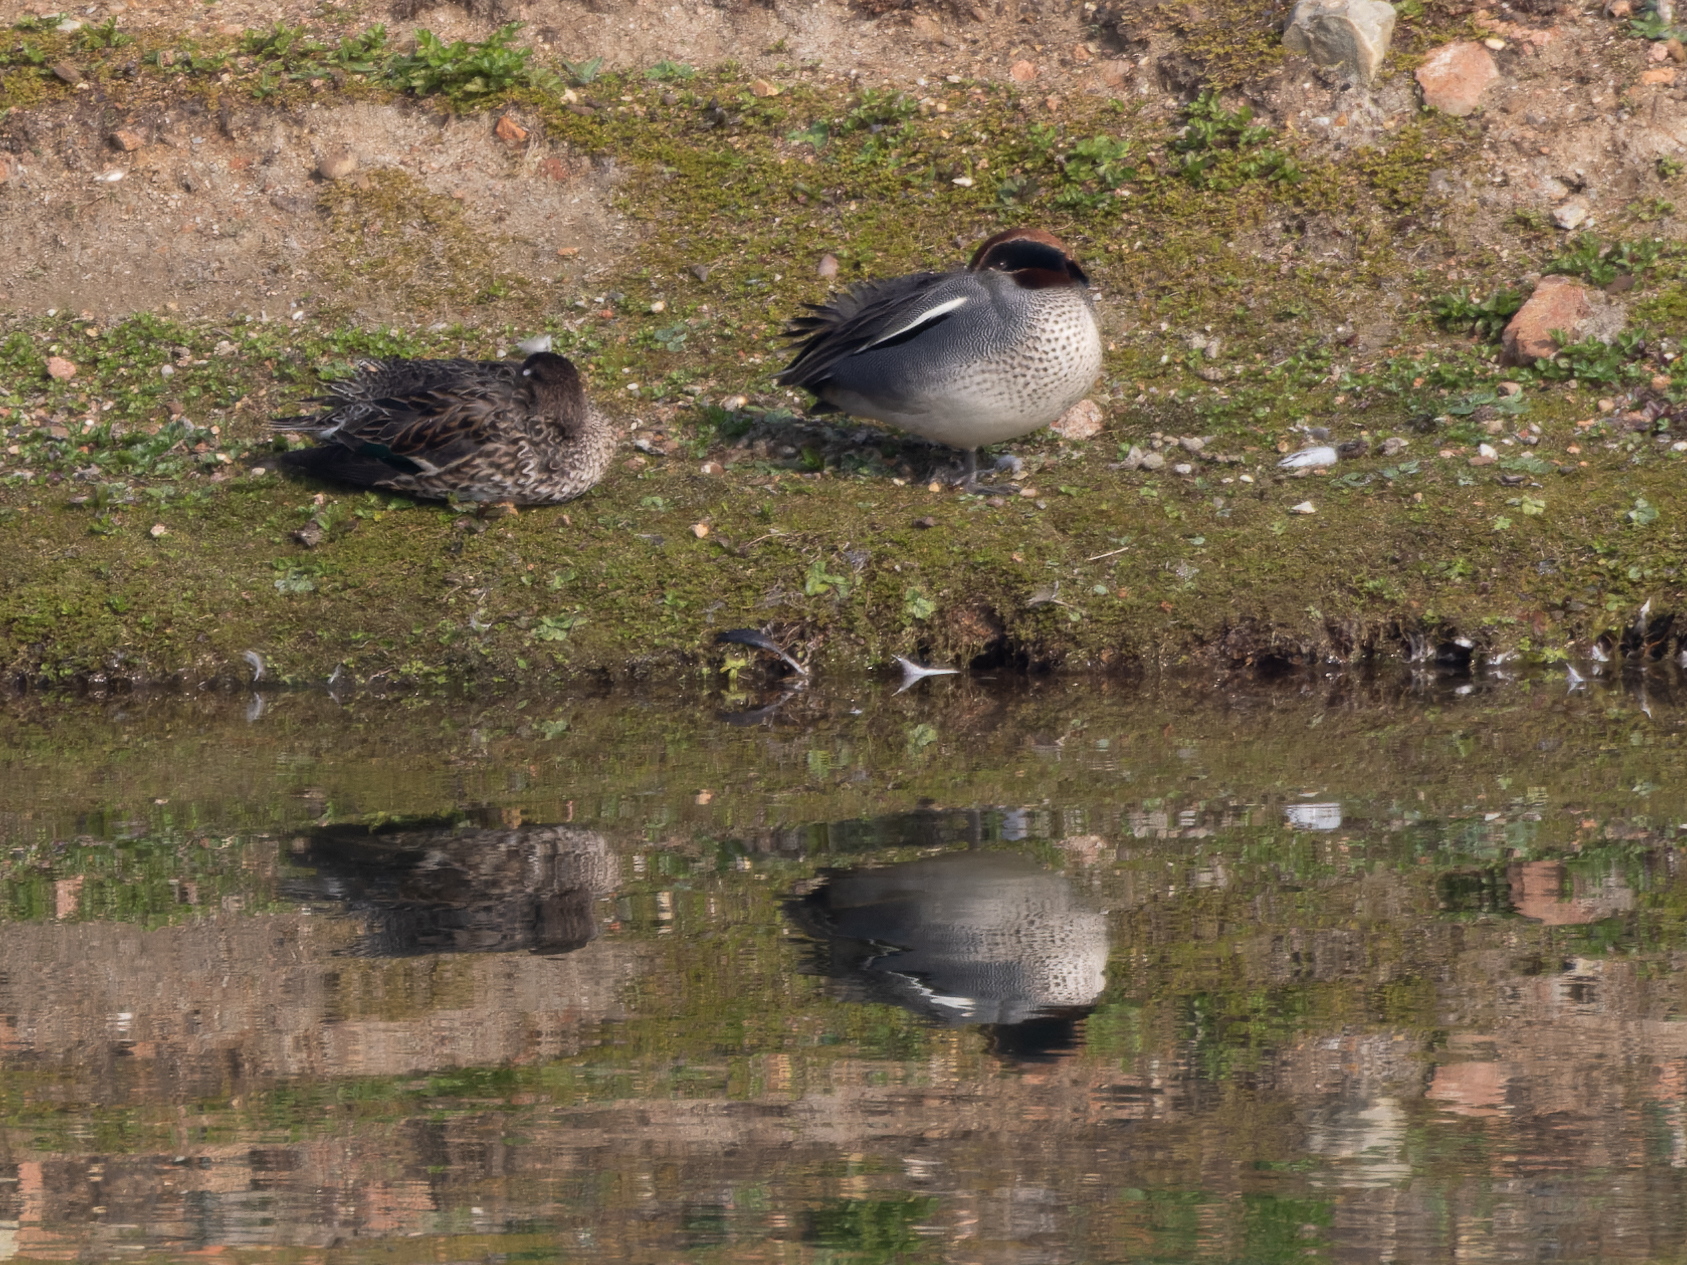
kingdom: Animalia
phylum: Chordata
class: Aves
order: Anseriformes
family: Anatidae
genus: Anas
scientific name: Anas crecca
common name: Eurasian teal
